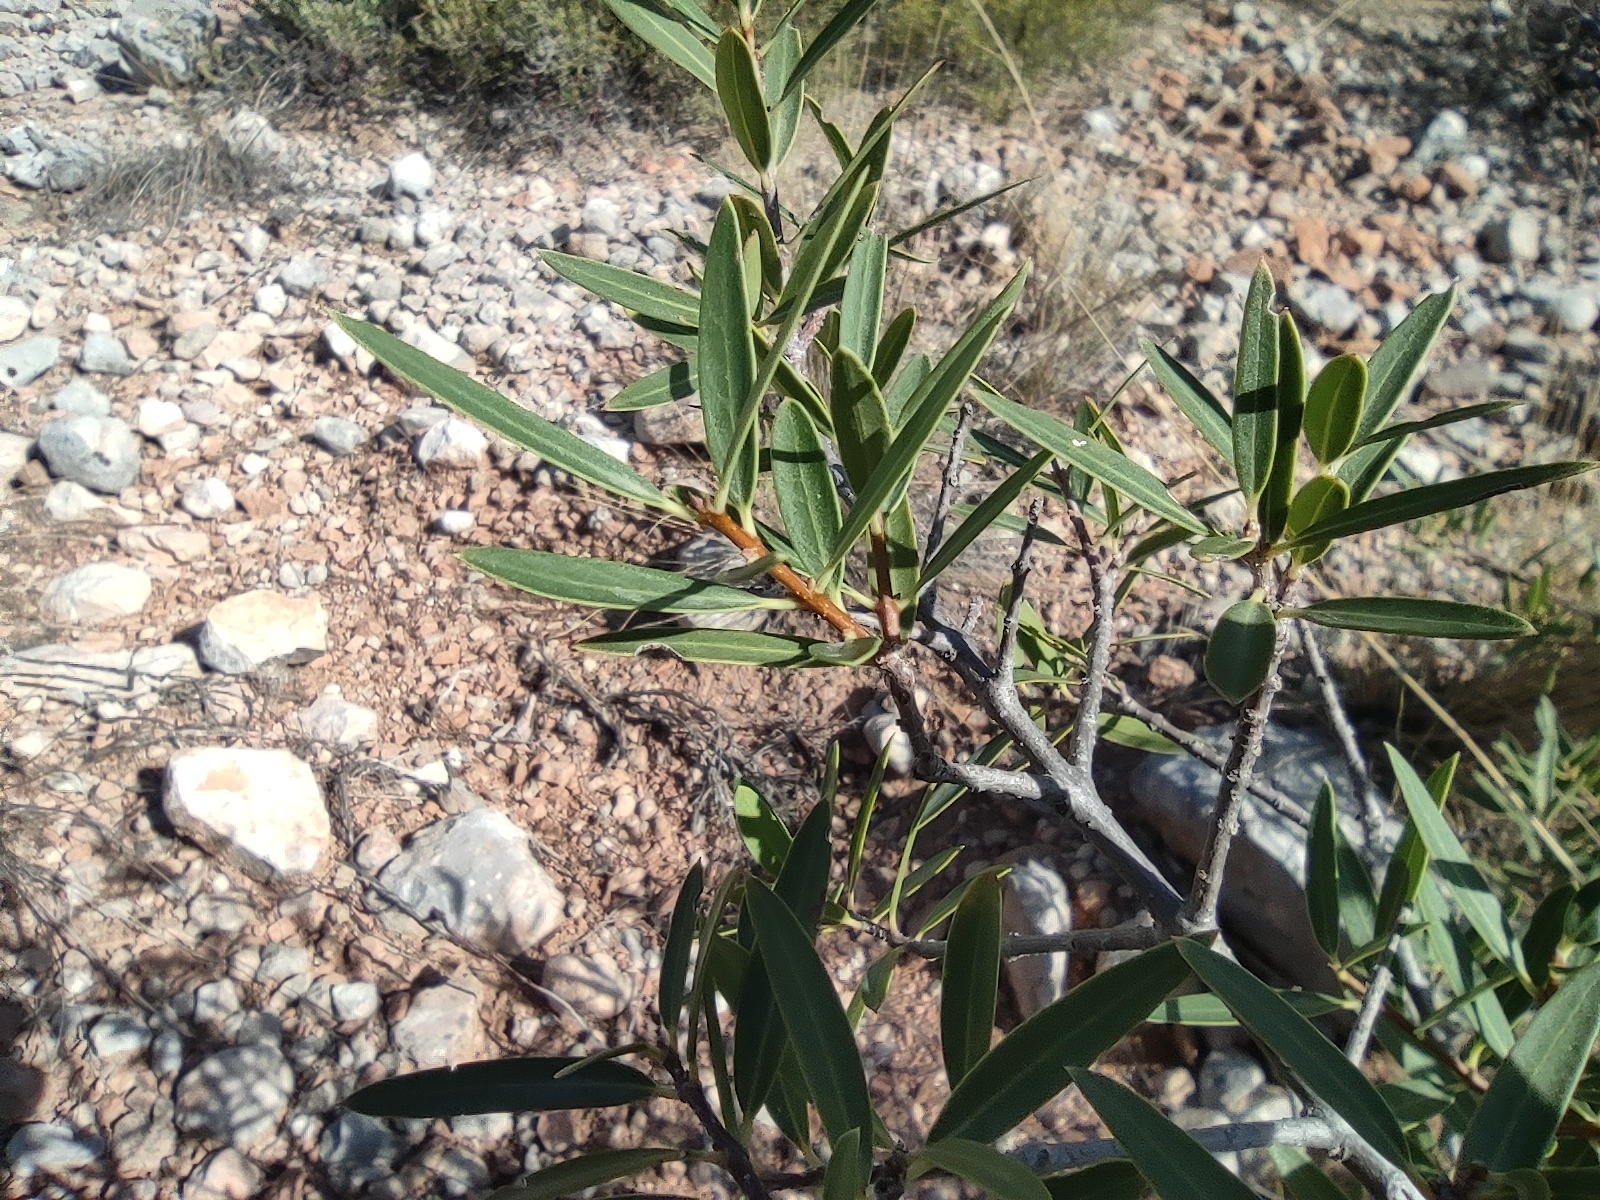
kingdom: Plantae
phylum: Tracheophyta
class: Magnoliopsida
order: Lamiales
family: Oleaceae
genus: Phillyrea
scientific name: Phillyrea angustifolia
